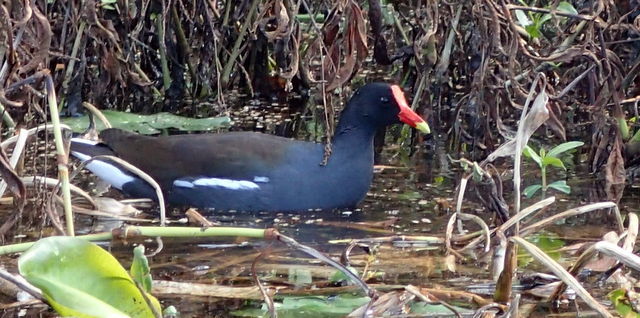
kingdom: Animalia
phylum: Chordata
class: Aves
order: Gruiformes
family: Rallidae
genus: Gallinula
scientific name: Gallinula chloropus
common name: Common moorhen
